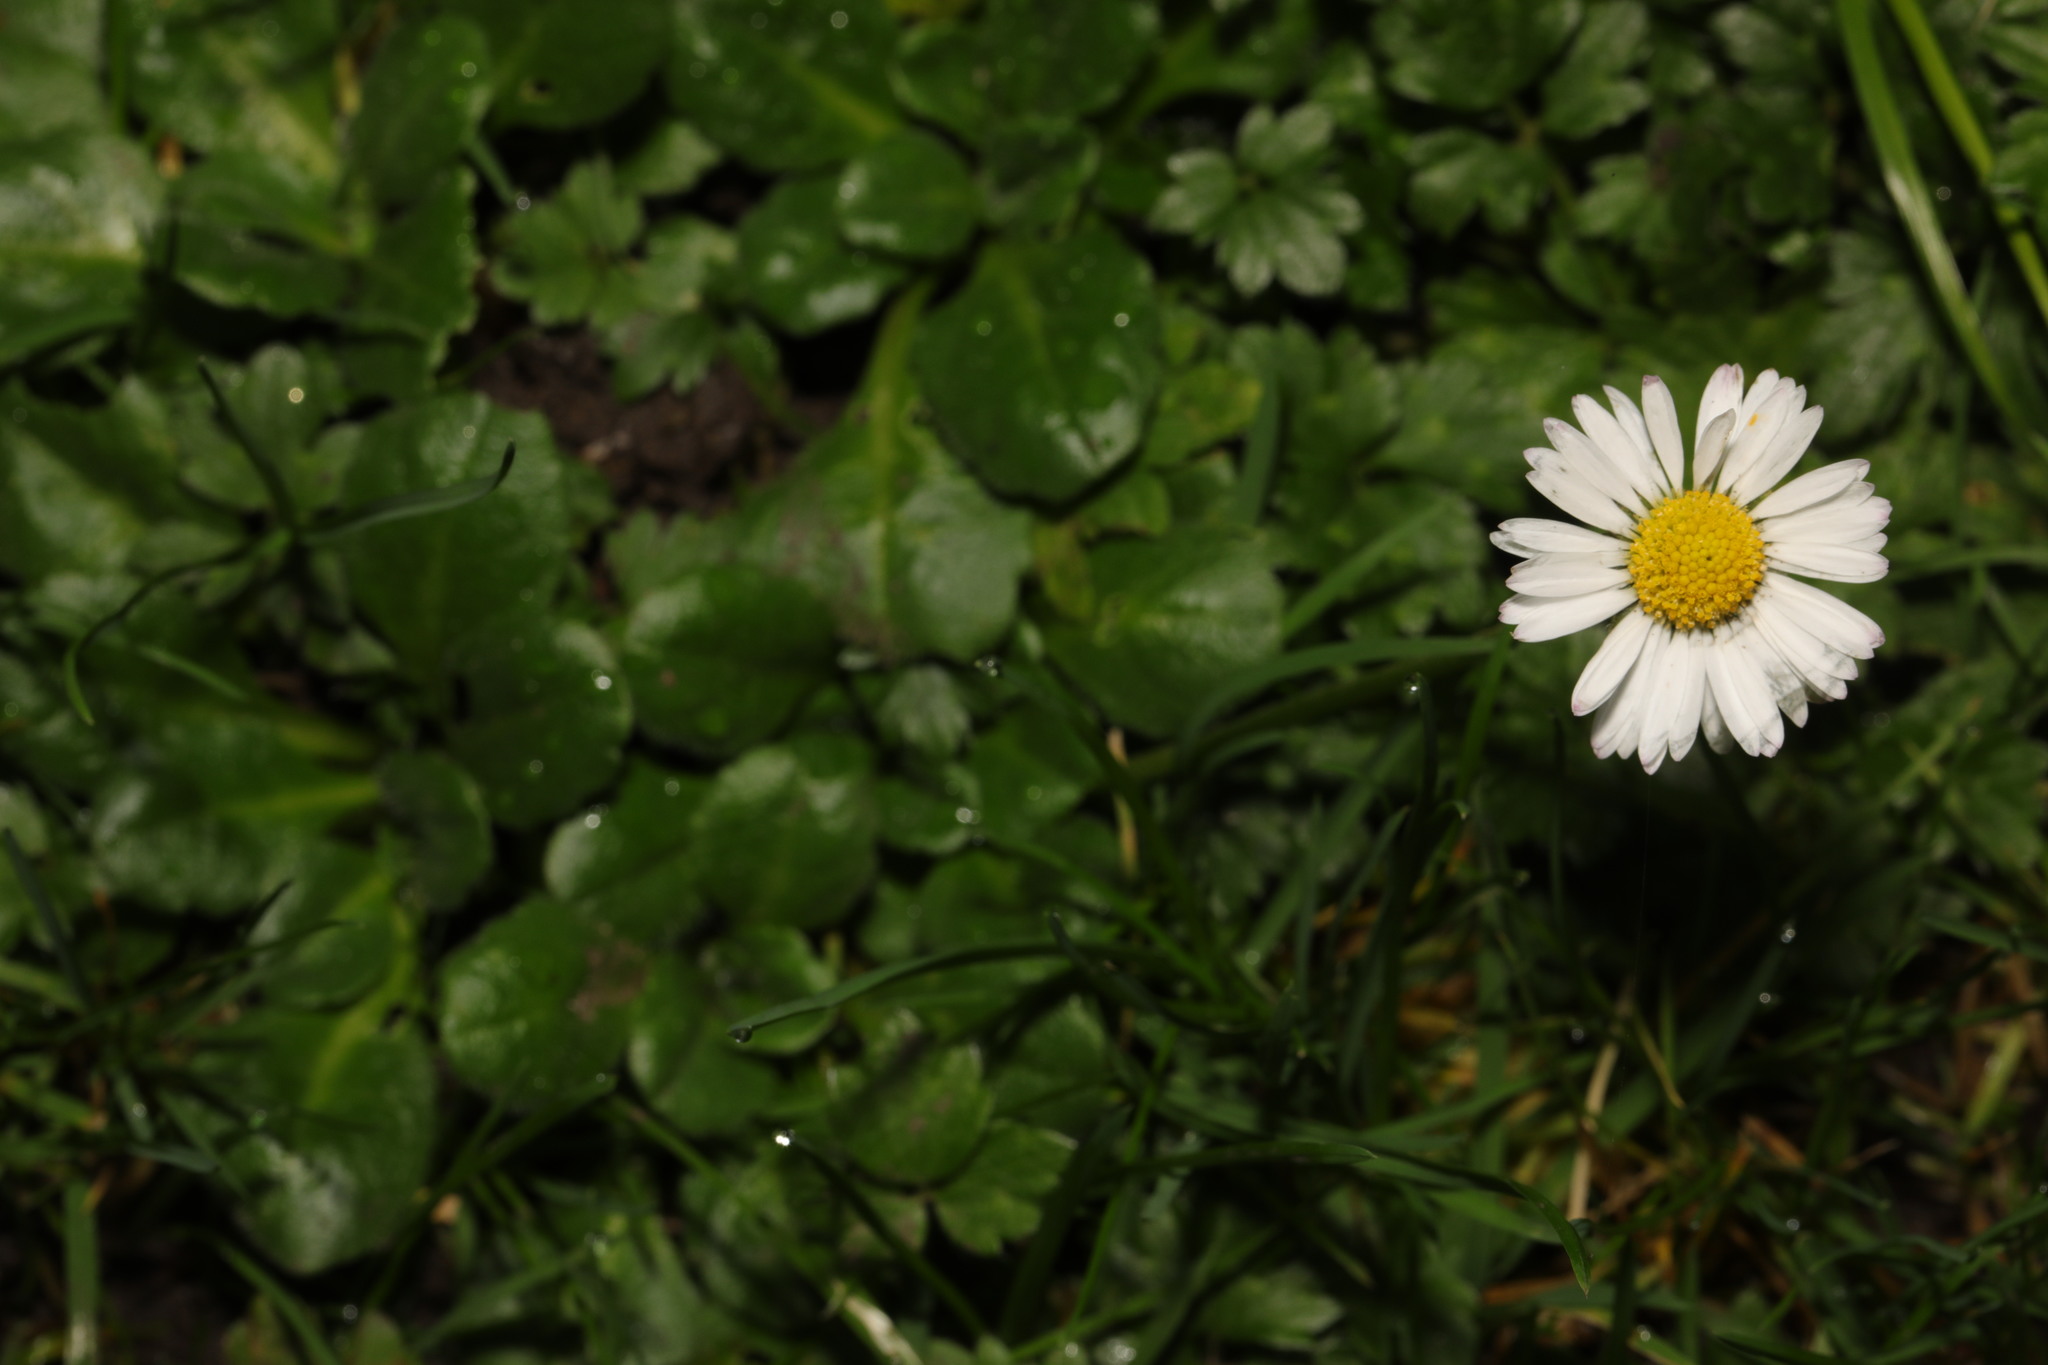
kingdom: Plantae
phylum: Tracheophyta
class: Magnoliopsida
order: Asterales
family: Asteraceae
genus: Bellis
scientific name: Bellis perennis
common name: Lawndaisy
